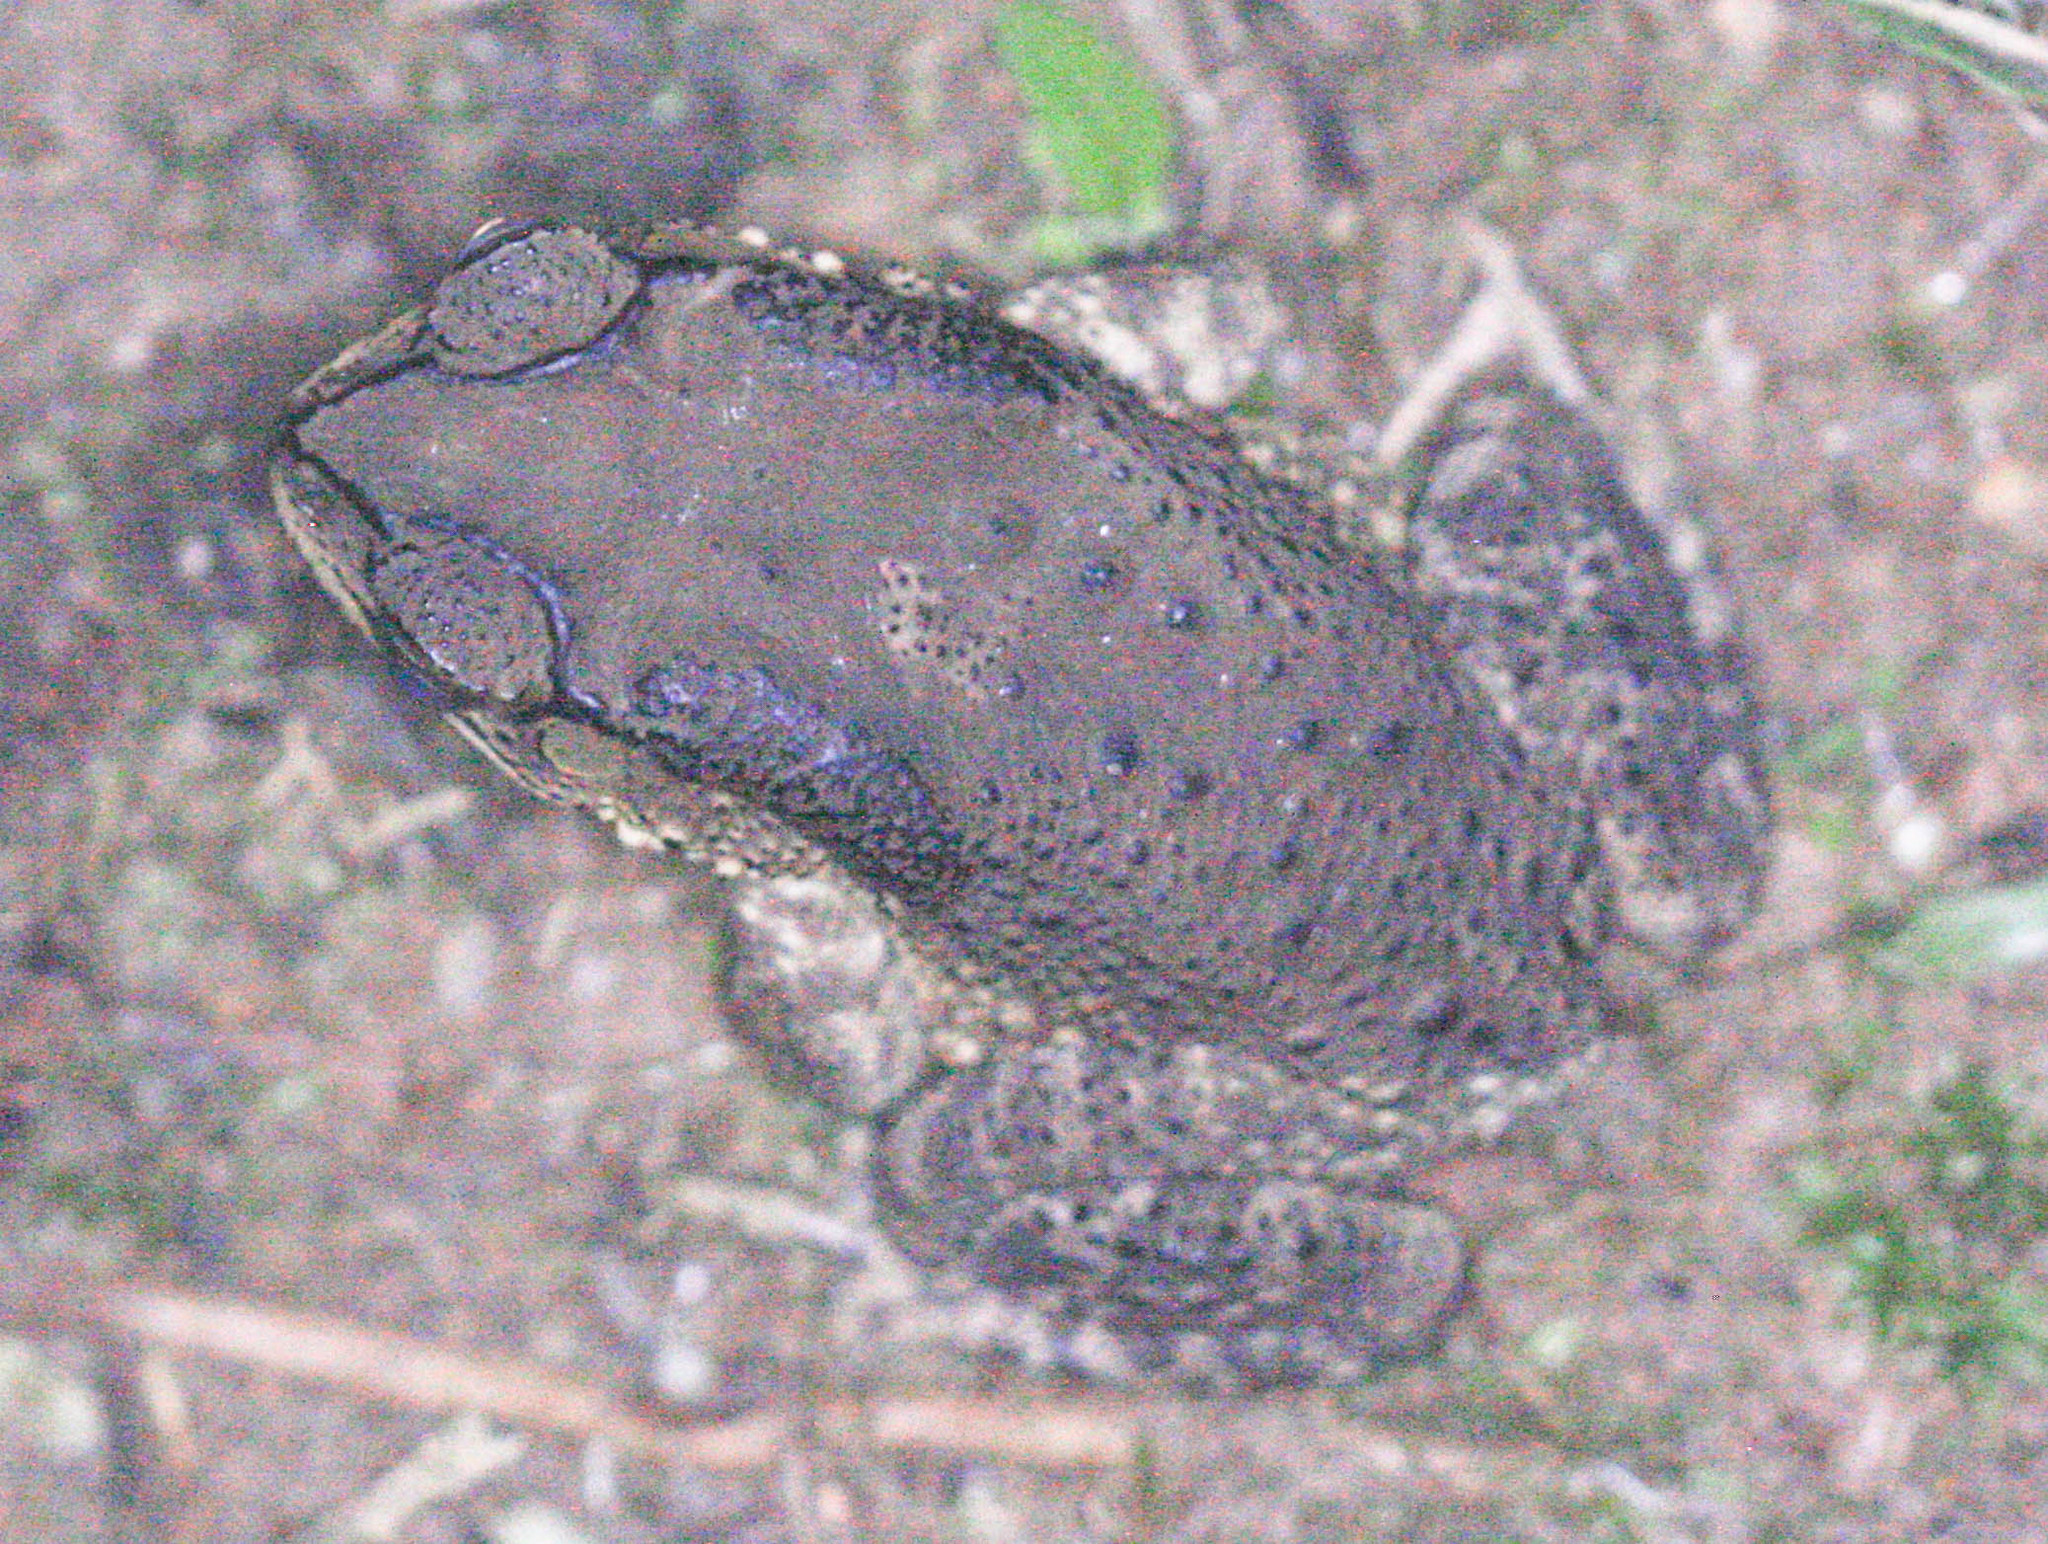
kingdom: Animalia
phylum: Chordata
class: Amphibia
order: Anura
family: Bufonidae
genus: Duttaphrynus
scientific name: Duttaphrynus melanostictus
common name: Common sunda toad
